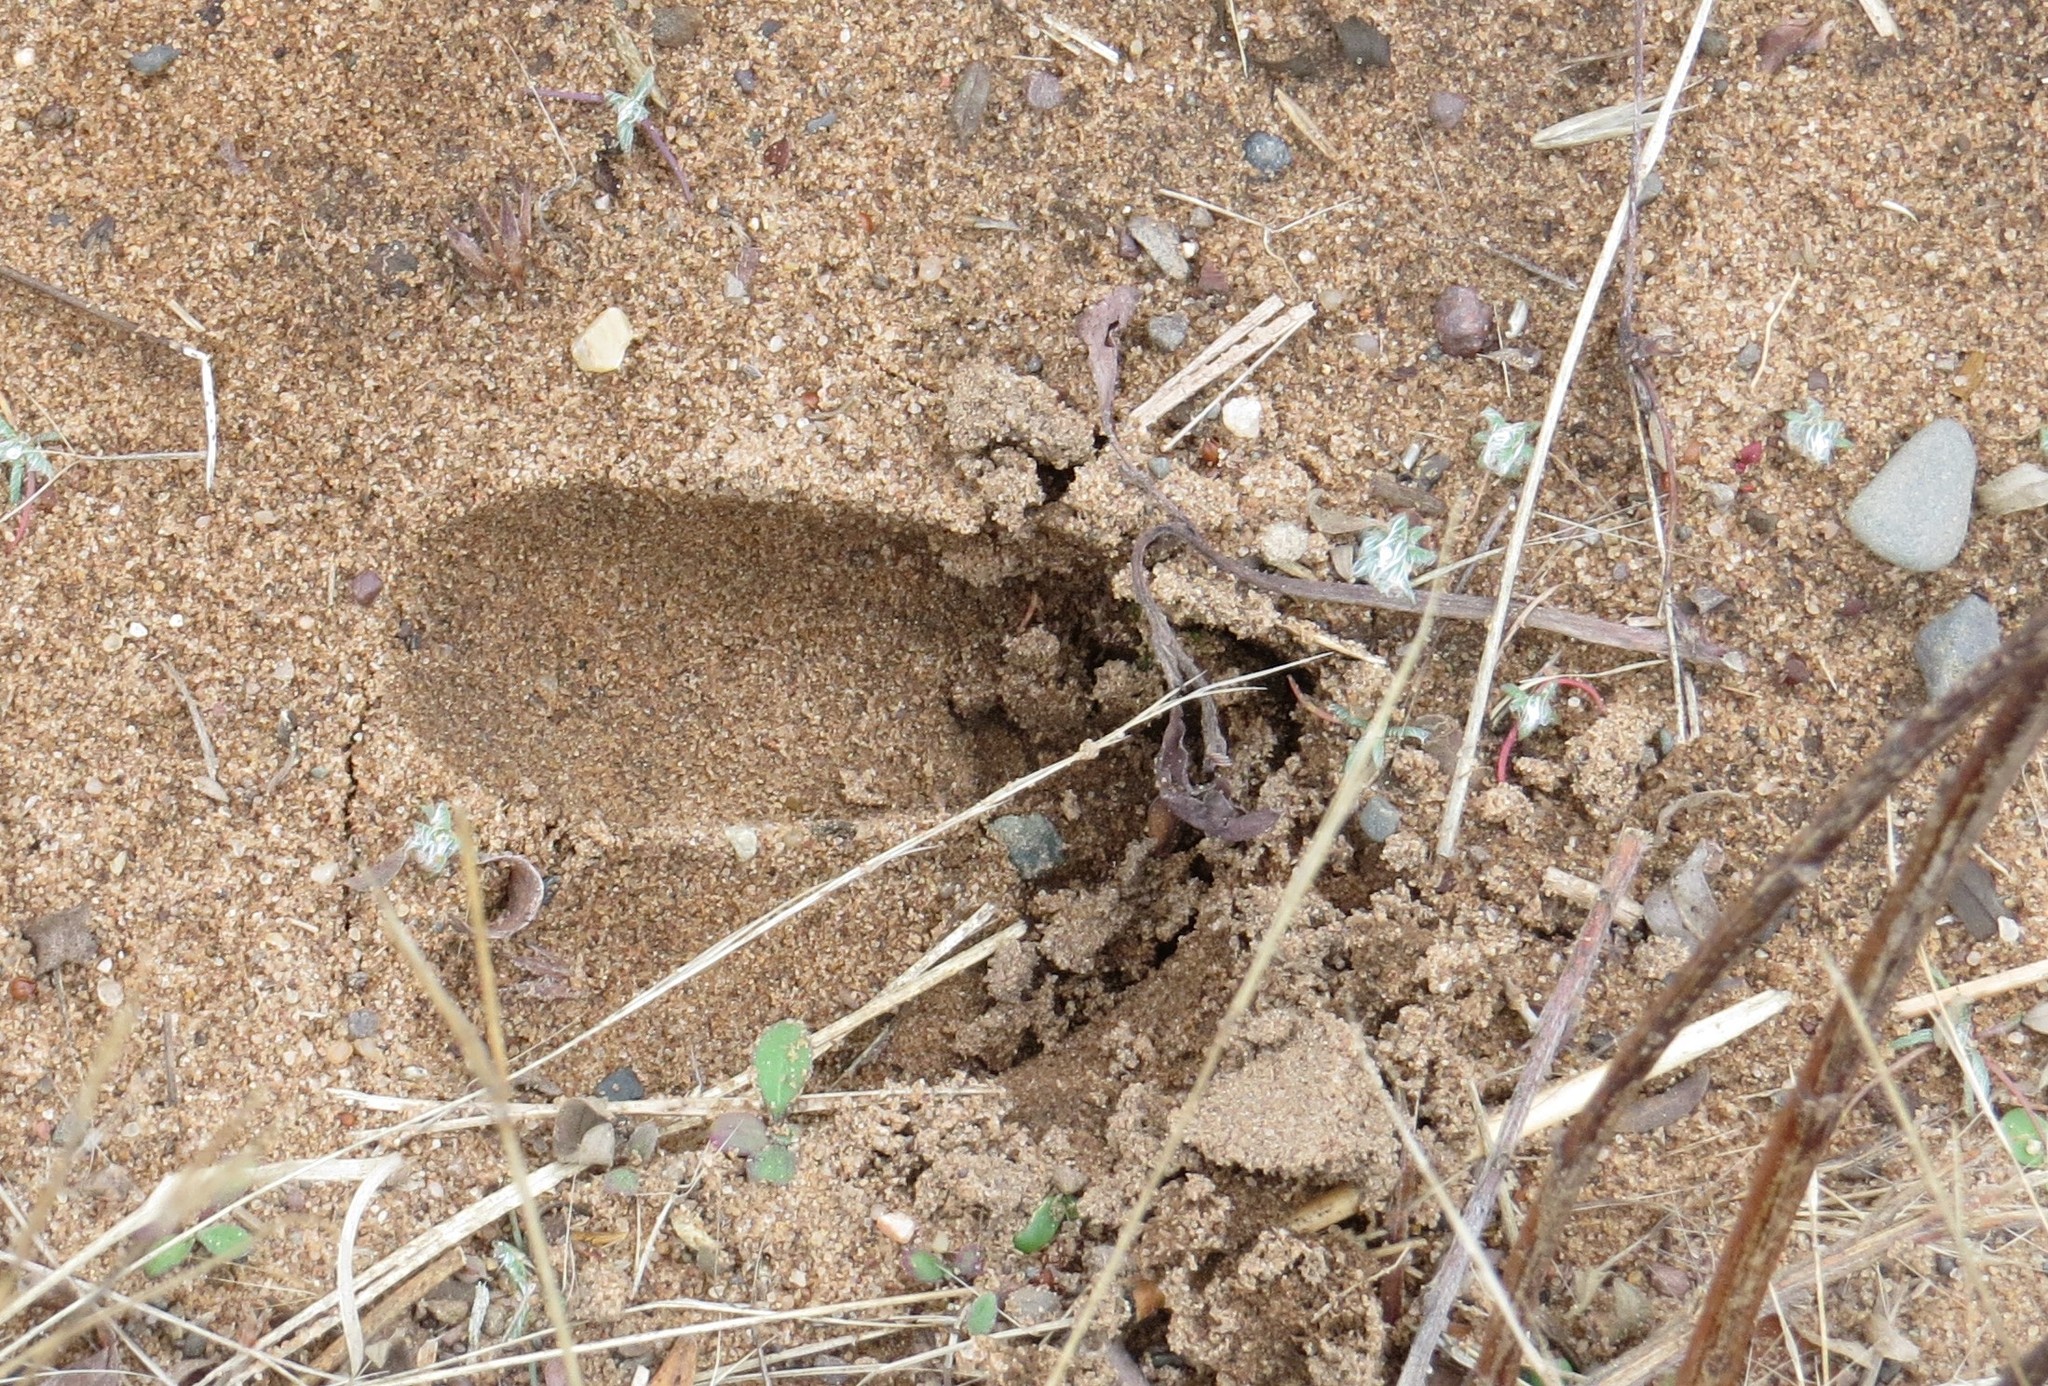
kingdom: Animalia
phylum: Chordata
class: Mammalia
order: Artiodactyla
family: Cervidae
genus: Odocoileus
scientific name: Odocoileus virginianus
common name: White-tailed deer
